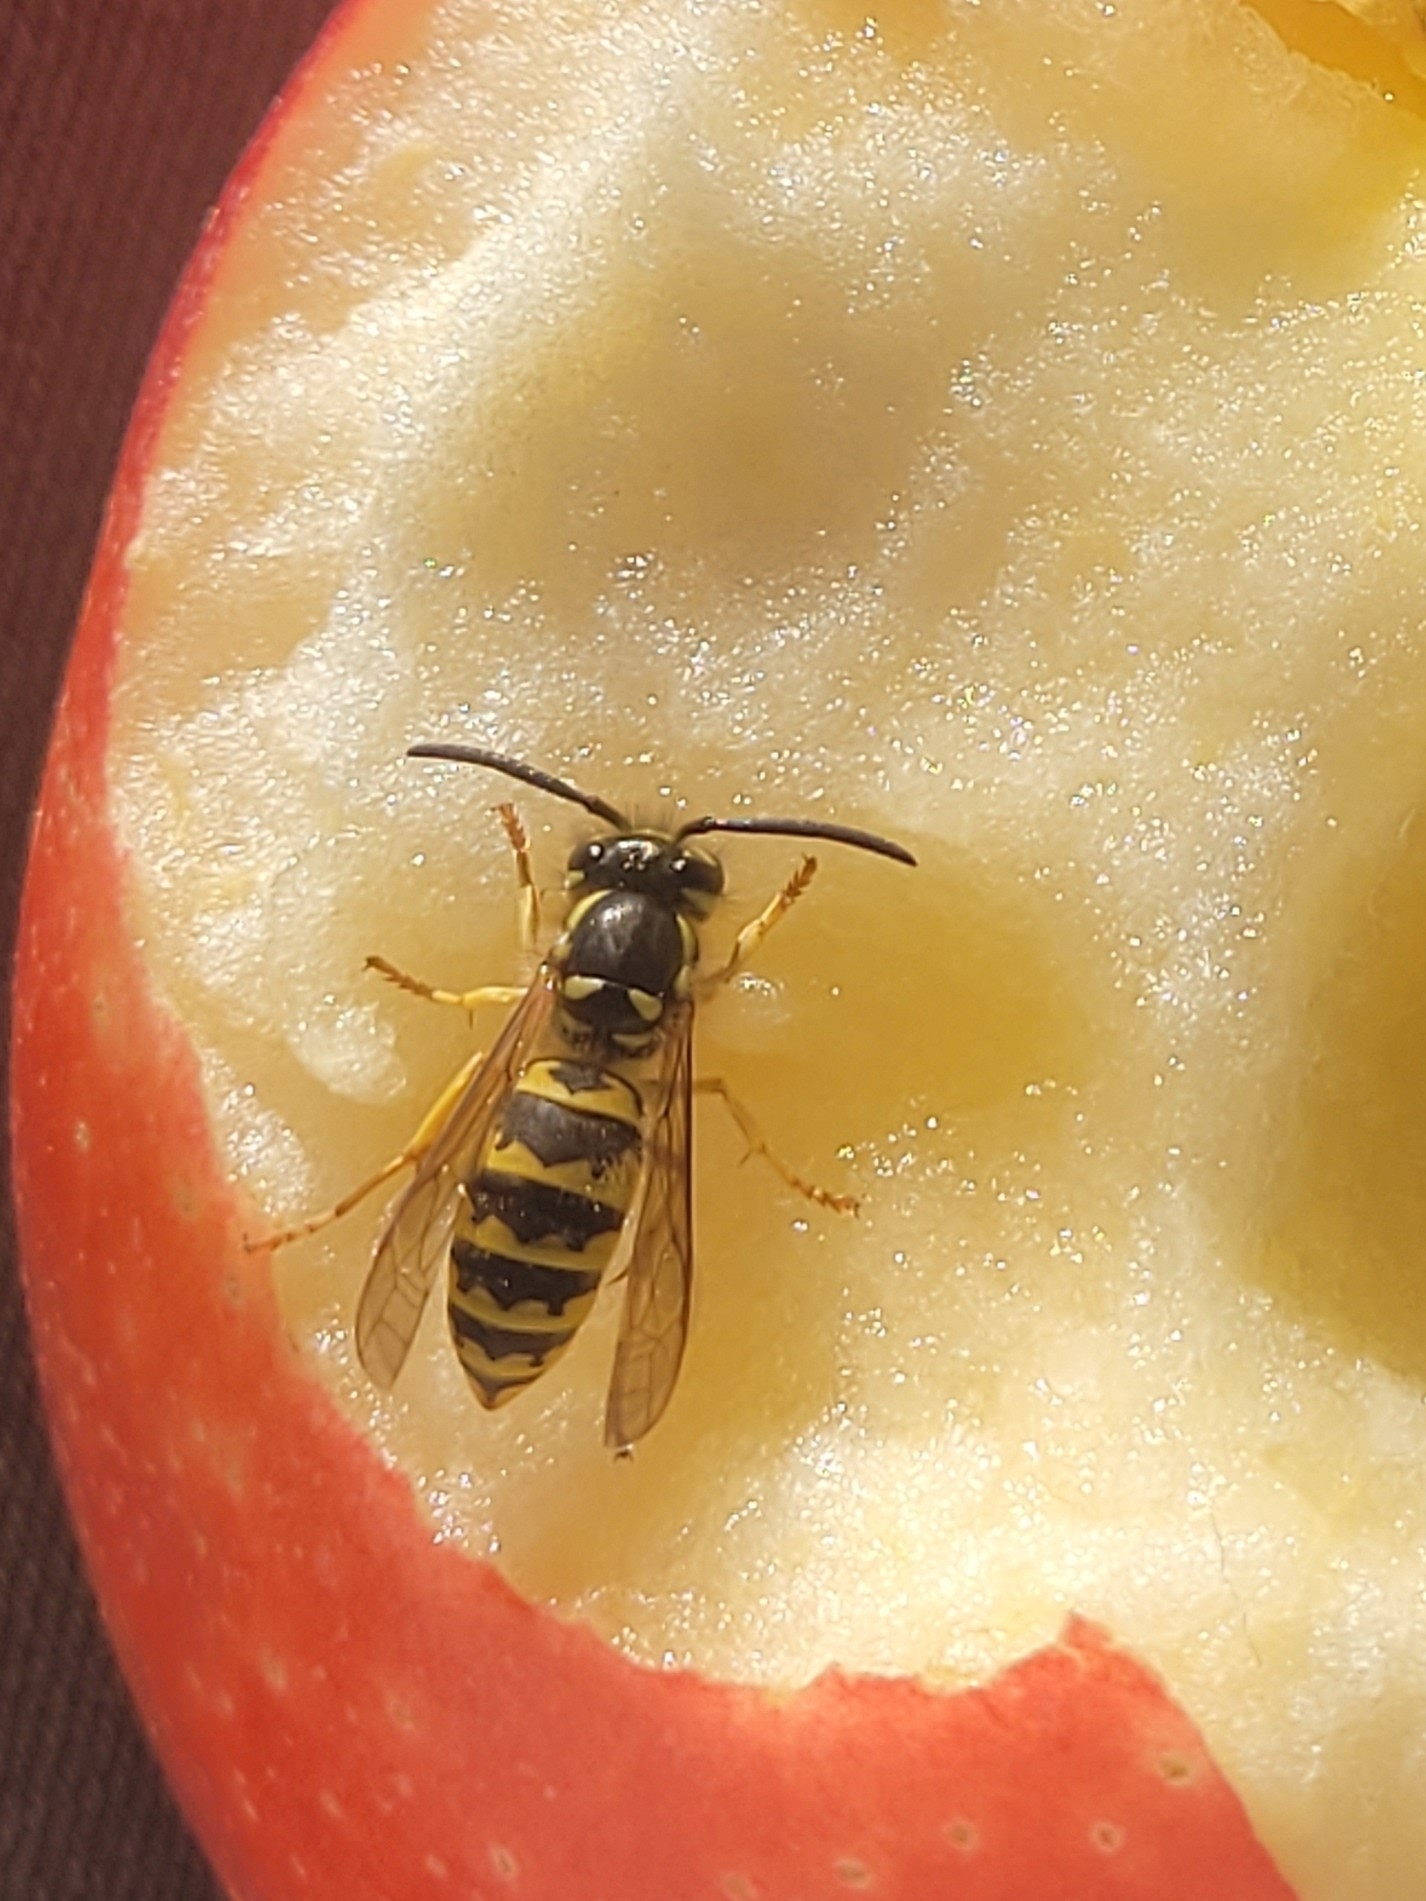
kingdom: Animalia
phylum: Arthropoda
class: Insecta
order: Hymenoptera
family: Vespidae
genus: Vespula
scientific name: Vespula flavopilosa
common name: Downy yellowjacket
